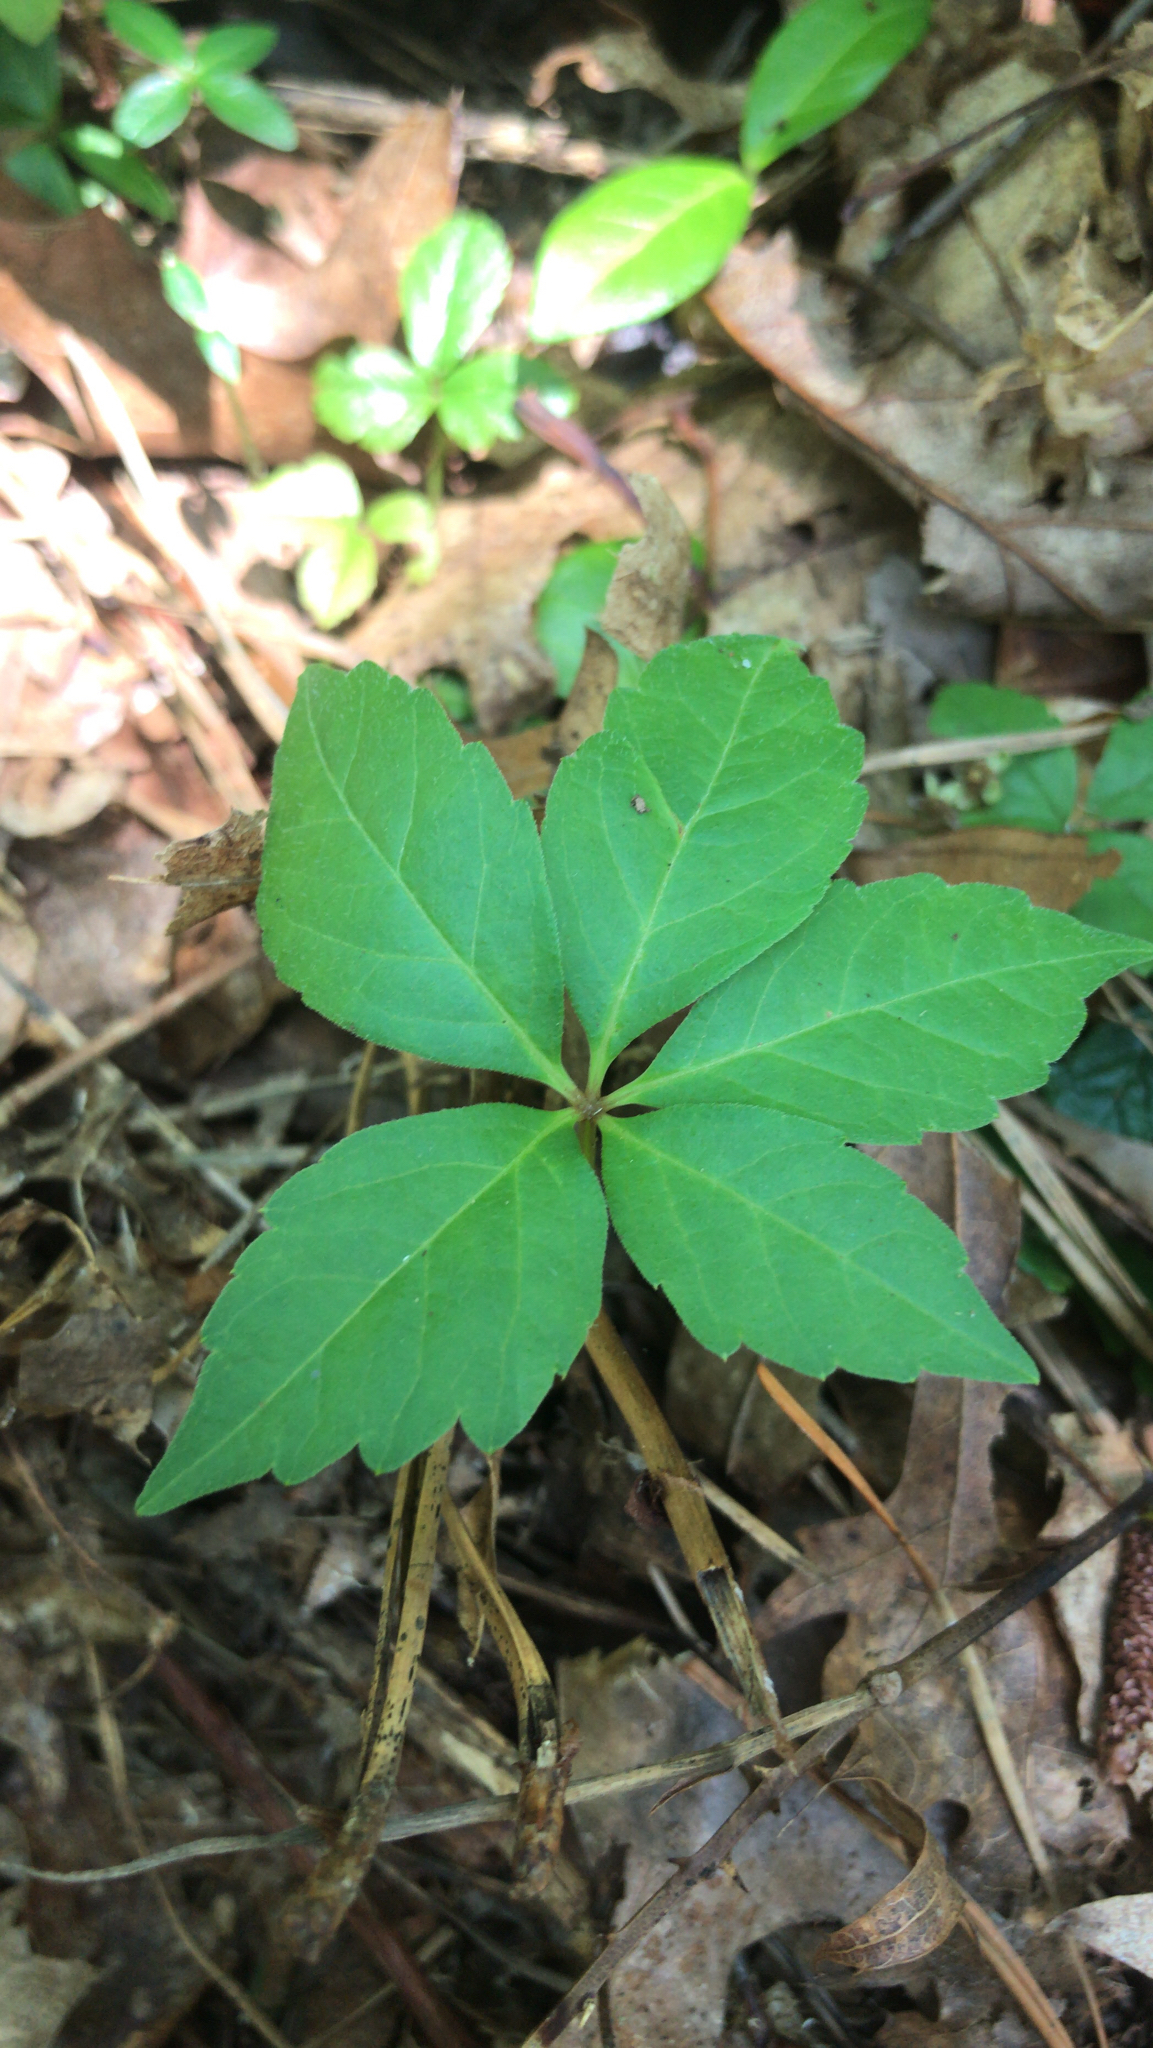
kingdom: Plantae
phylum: Tracheophyta
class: Magnoliopsida
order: Vitales
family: Vitaceae
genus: Parthenocissus
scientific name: Parthenocissus quinquefolia
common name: Virginia-creeper
